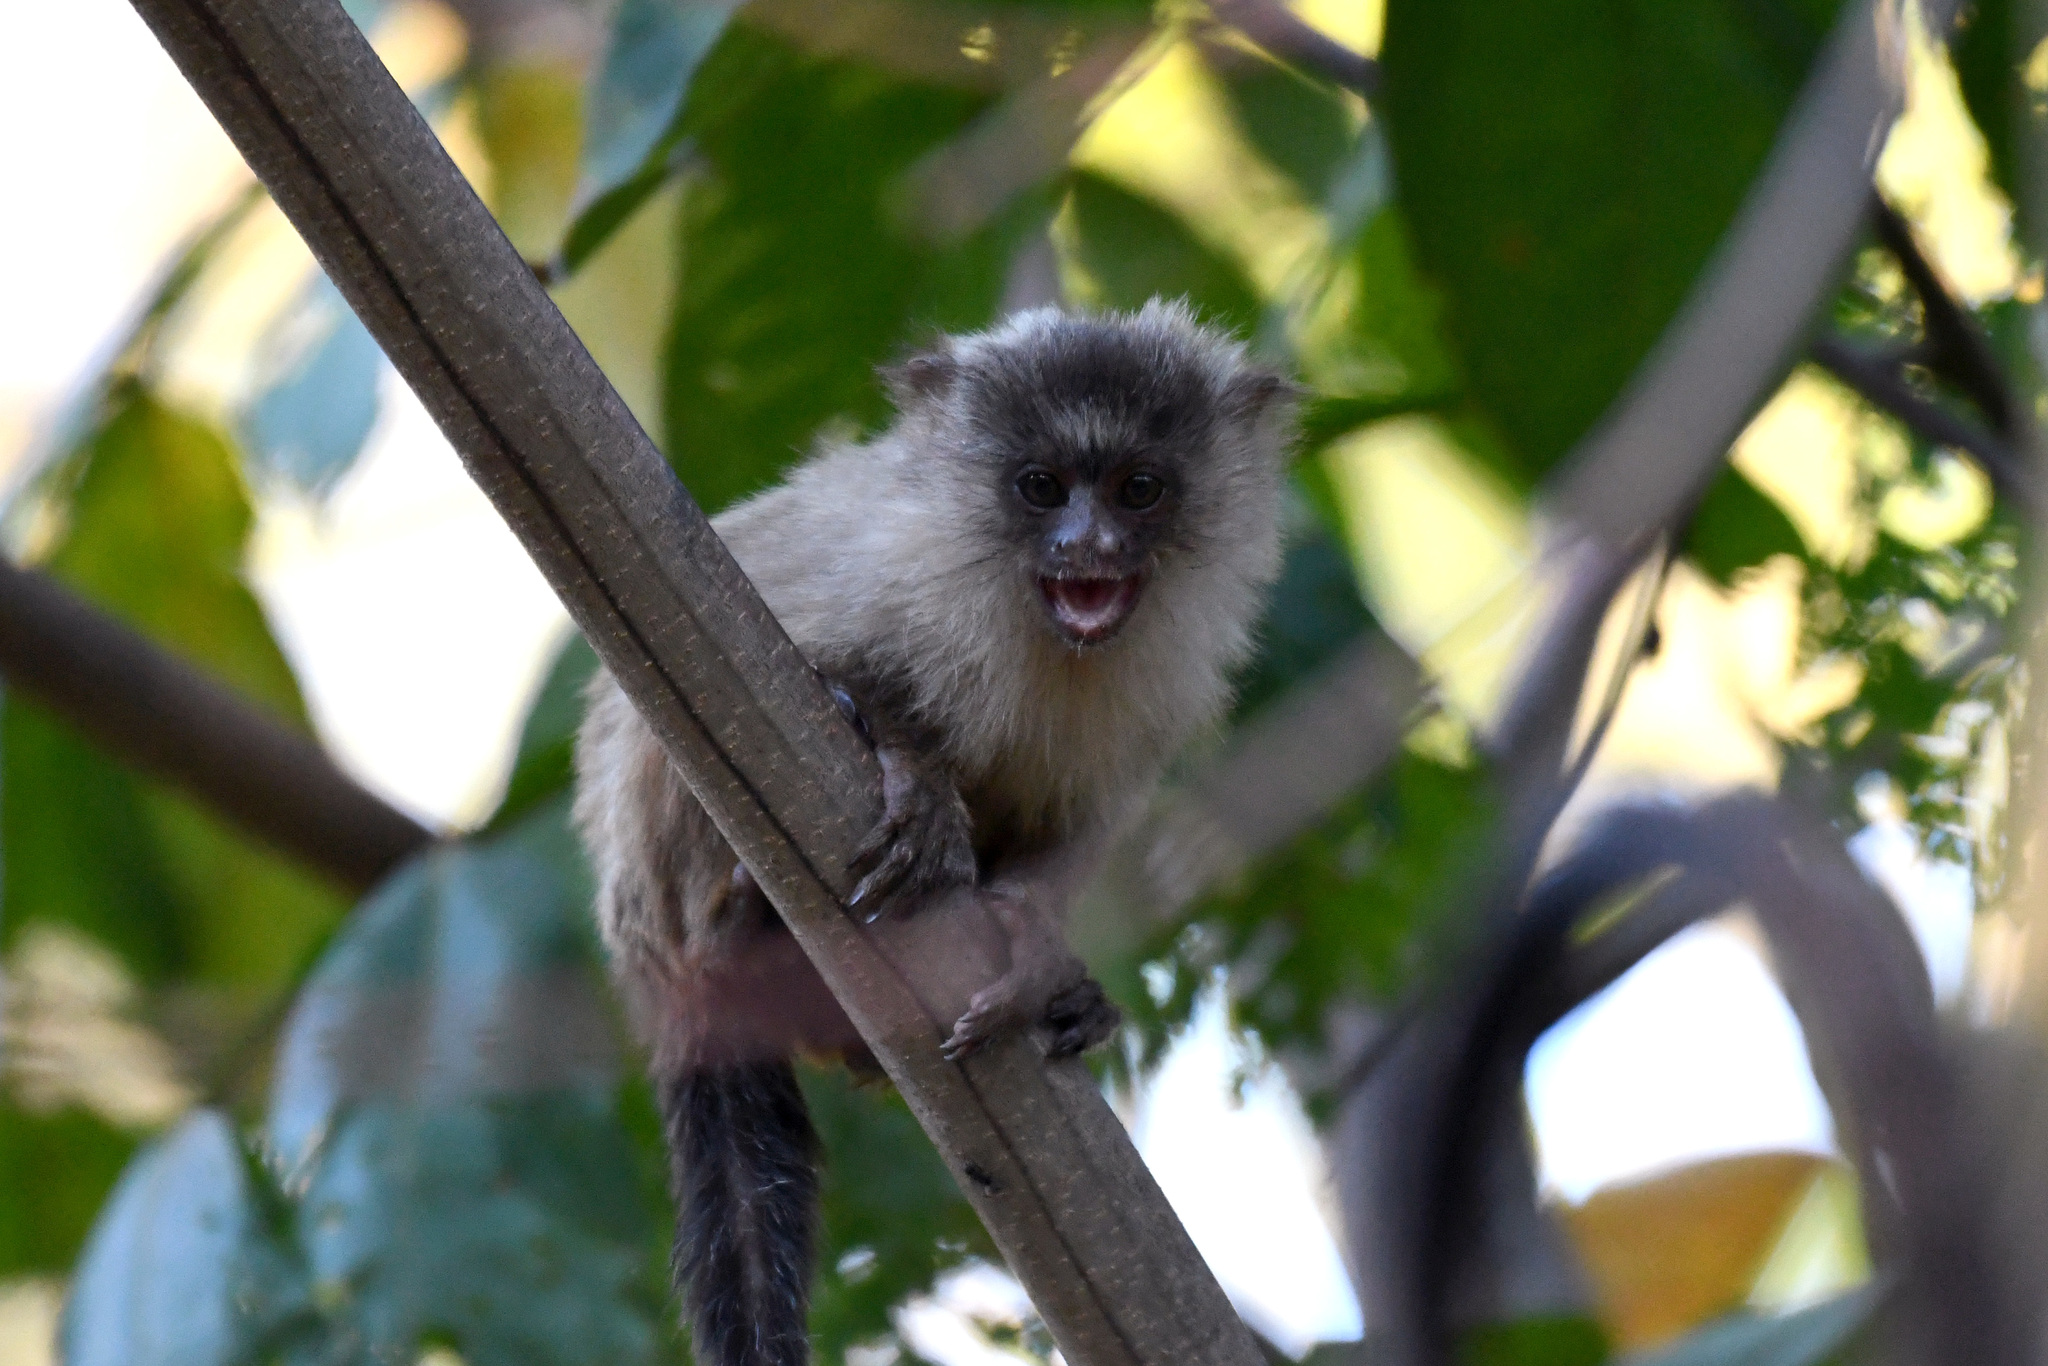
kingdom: Animalia
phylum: Chordata
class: Mammalia
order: Primates
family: Callitrichidae
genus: Mico
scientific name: Mico melanurus
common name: Black-tailed marmoset
